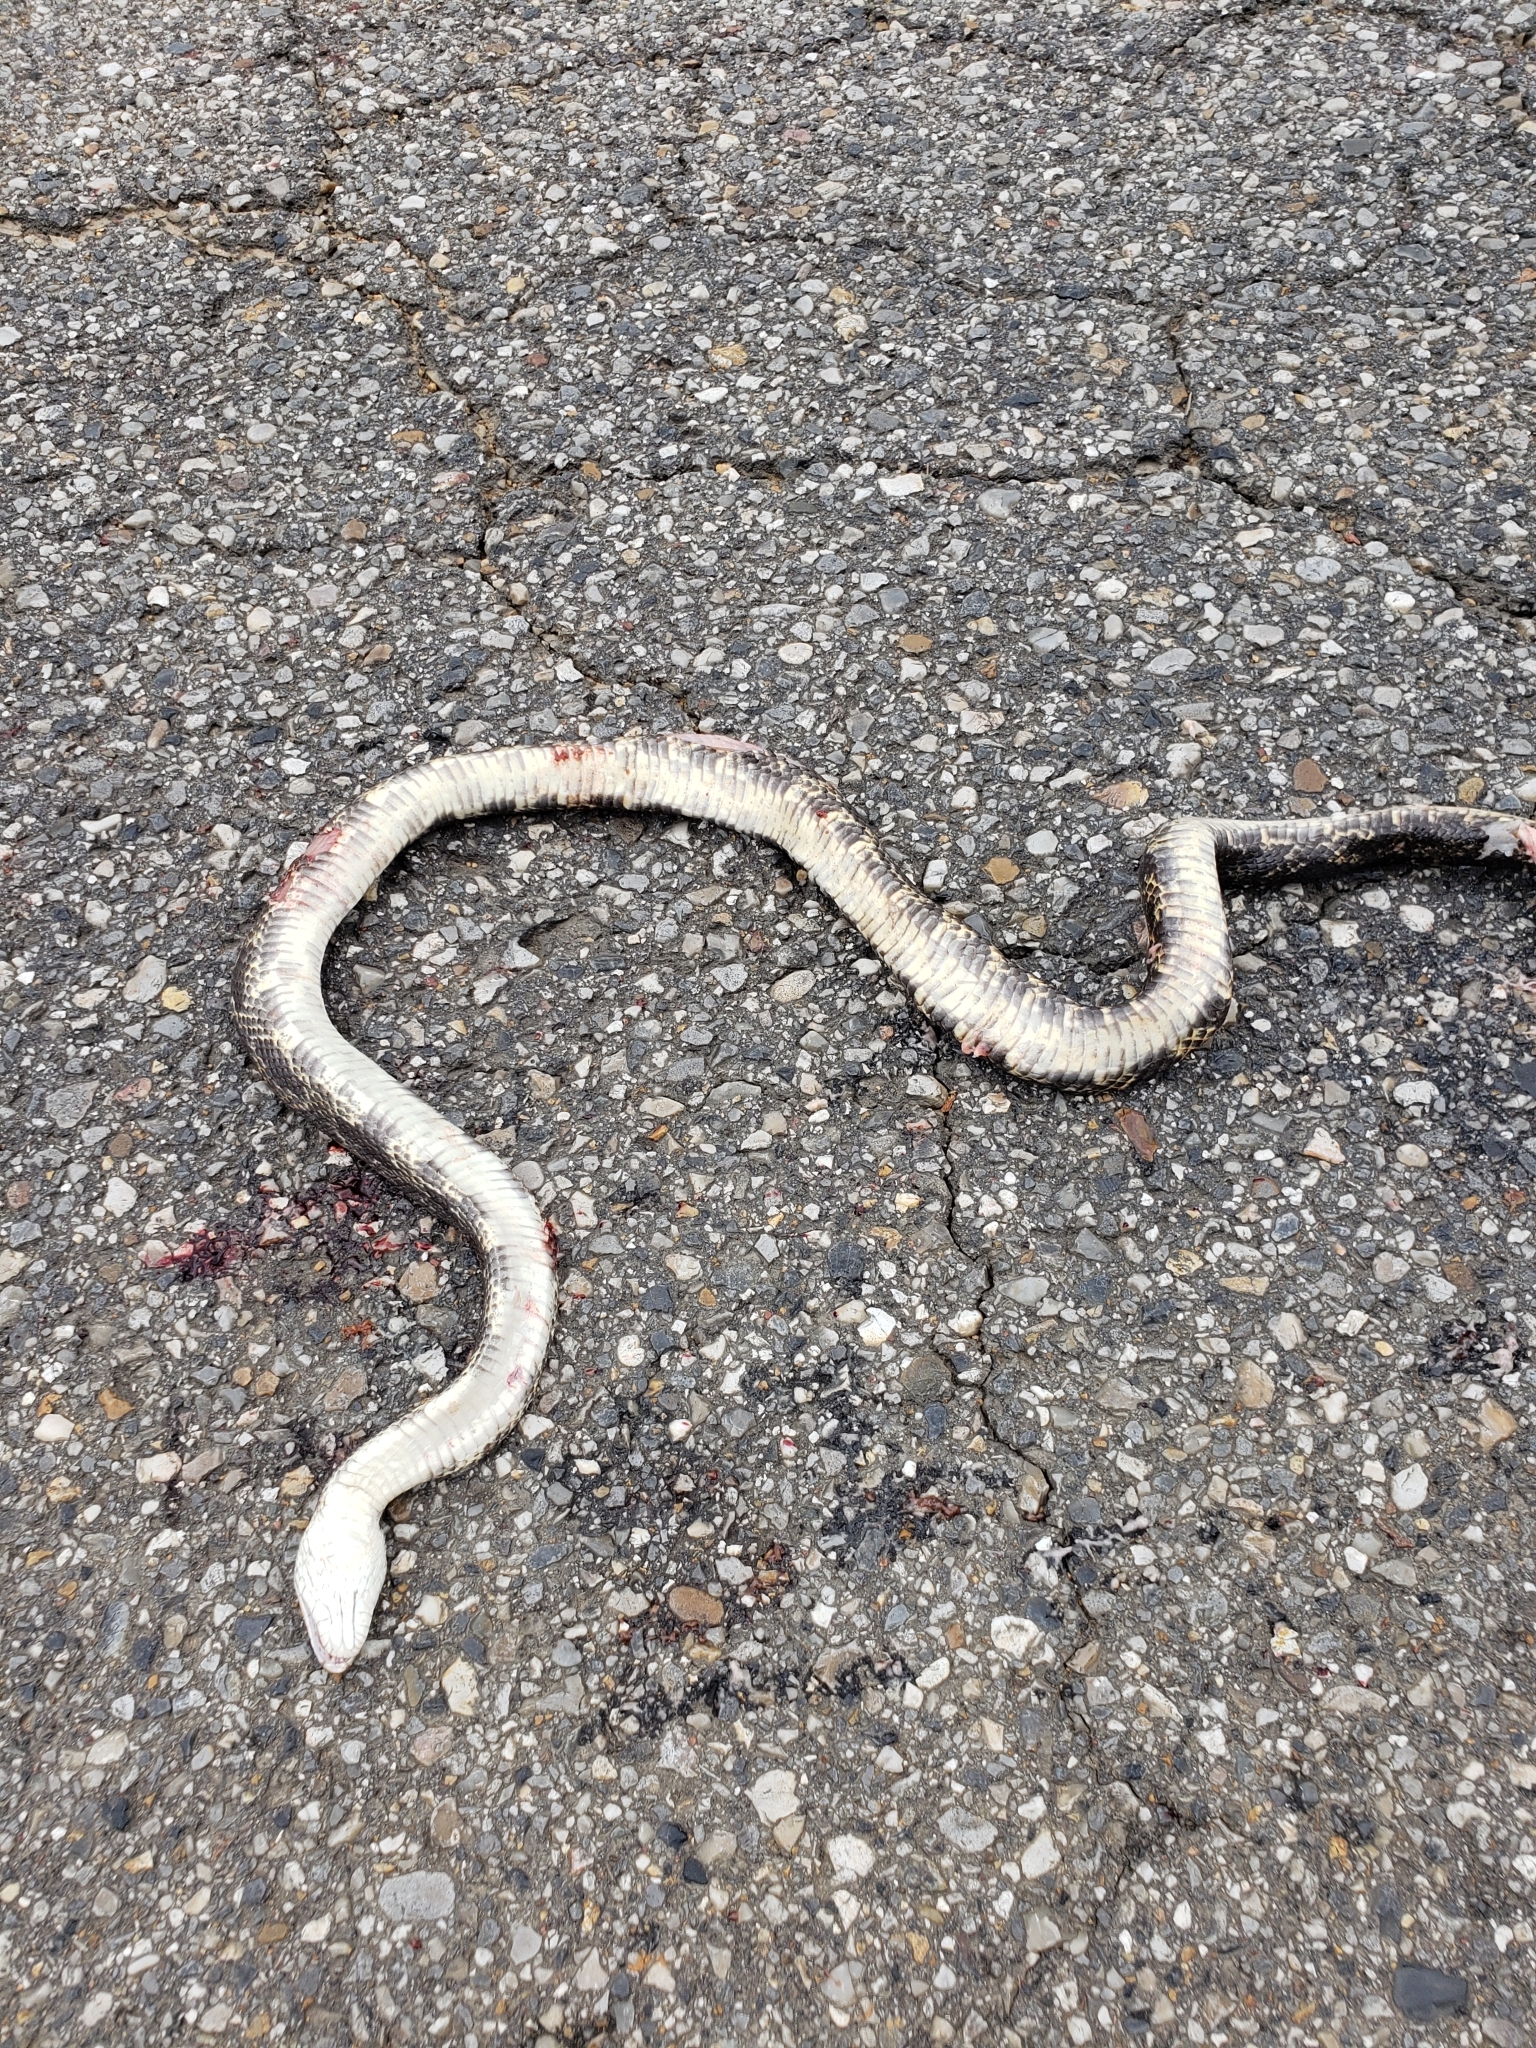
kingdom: Animalia
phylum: Chordata
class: Squamata
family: Colubridae
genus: Pantherophis
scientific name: Pantherophis obsoletus
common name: Black rat snake
